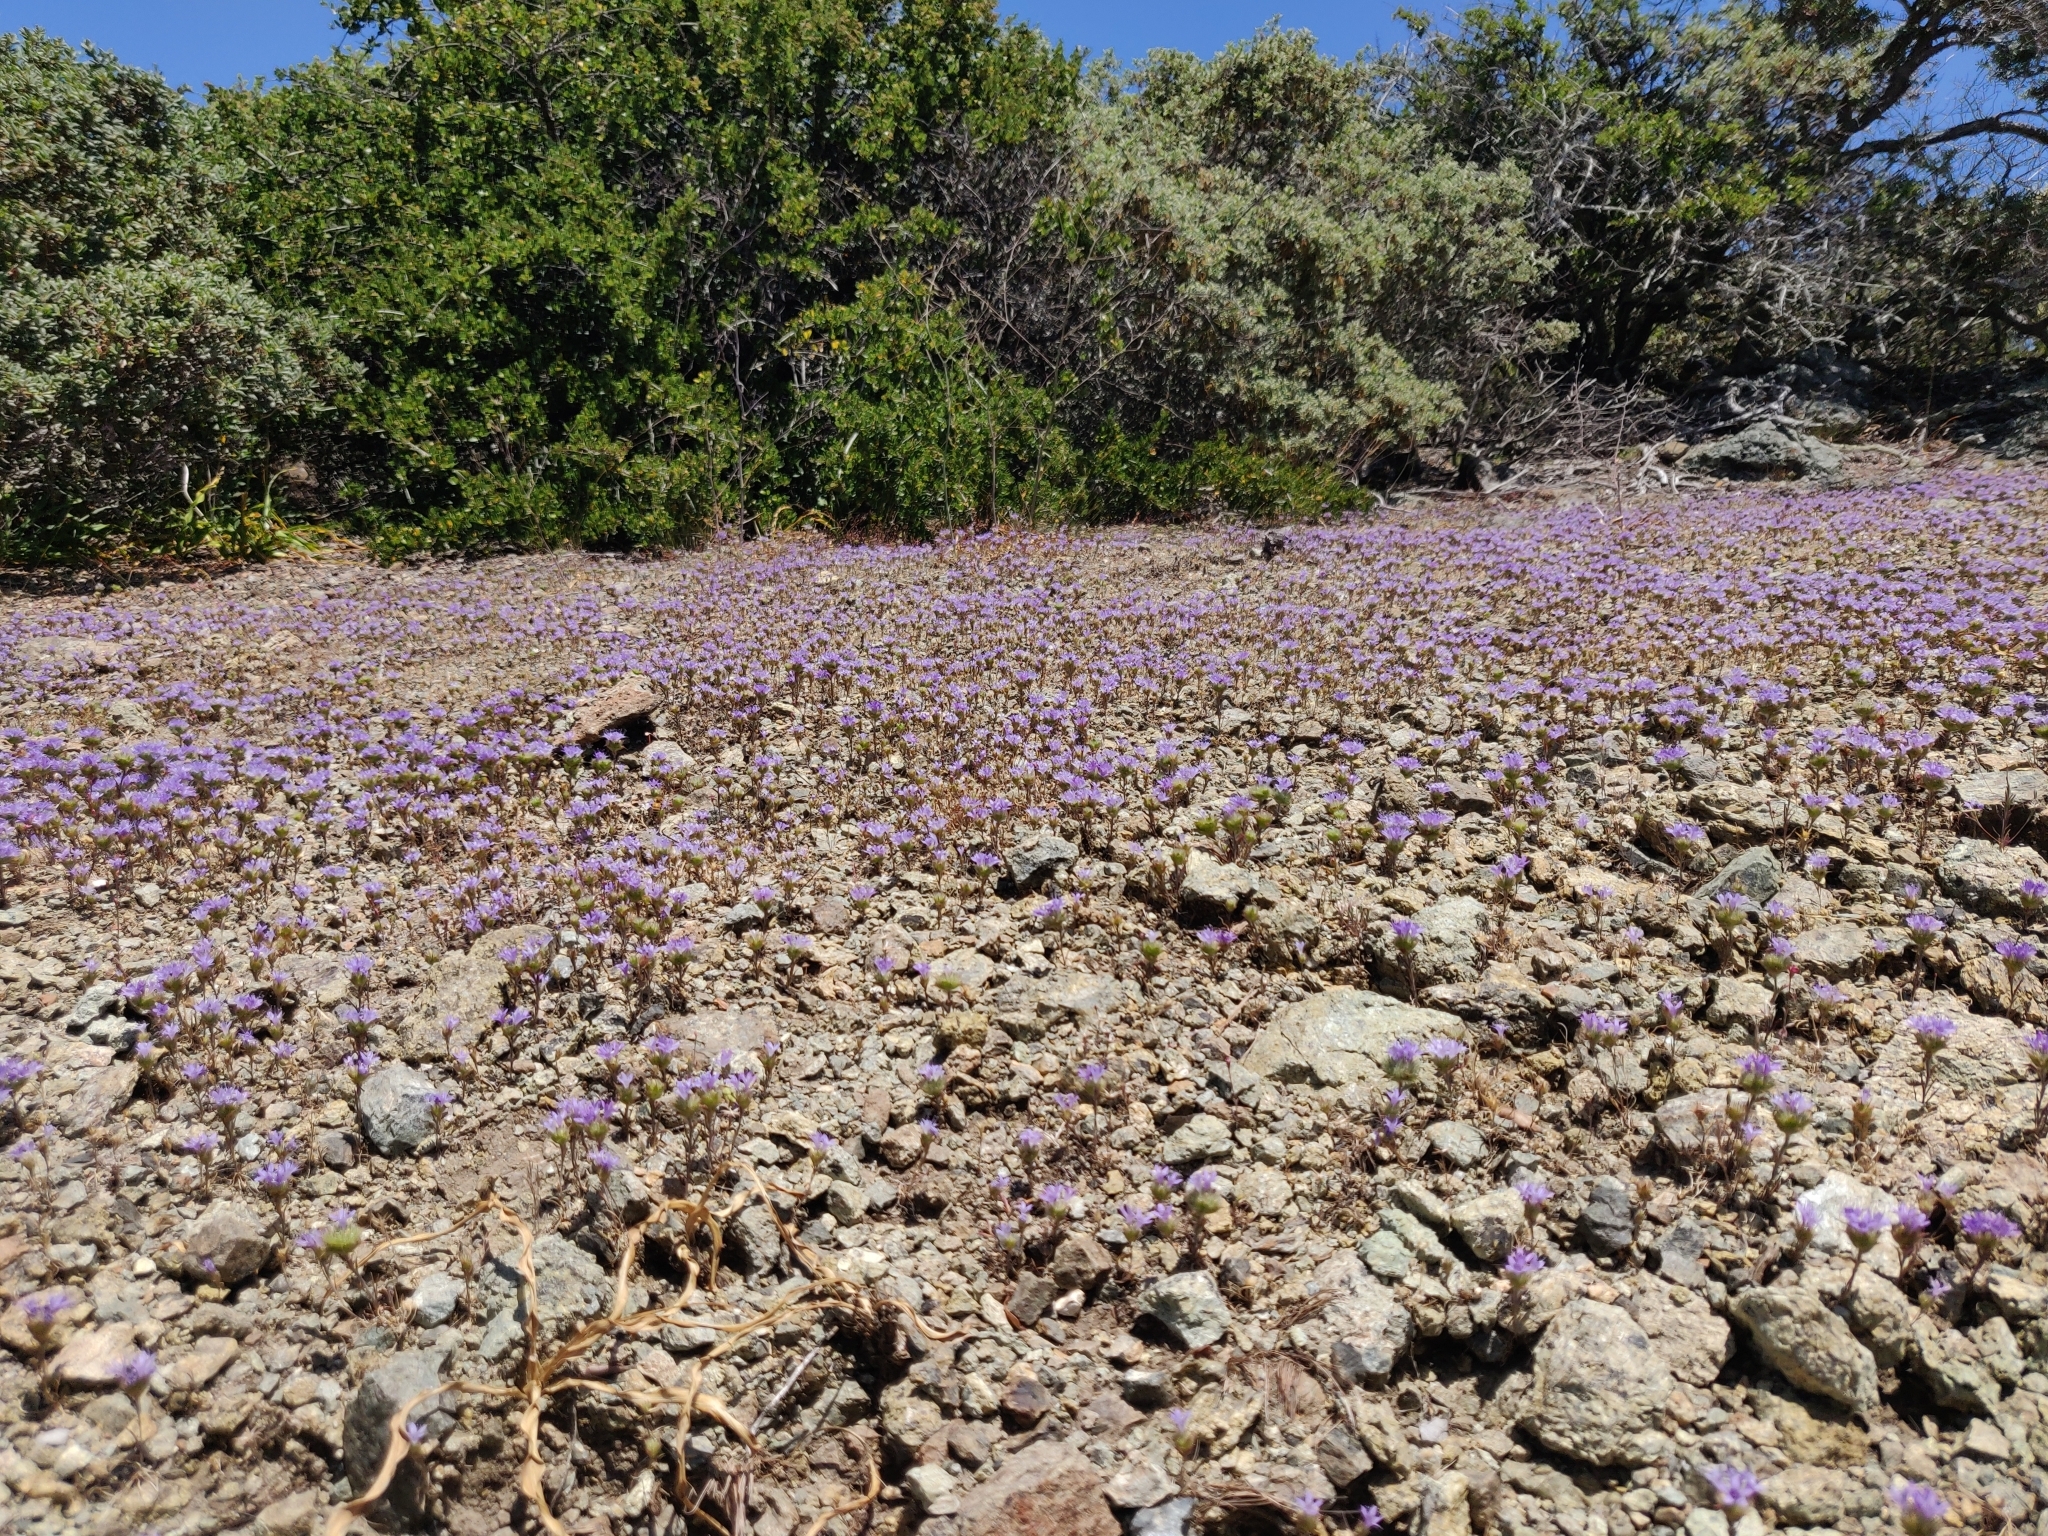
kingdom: Plantae
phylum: Tracheophyta
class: Magnoliopsida
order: Ericales
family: Polemoniaceae
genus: Navarretia
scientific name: Navarretia heterodoxa
